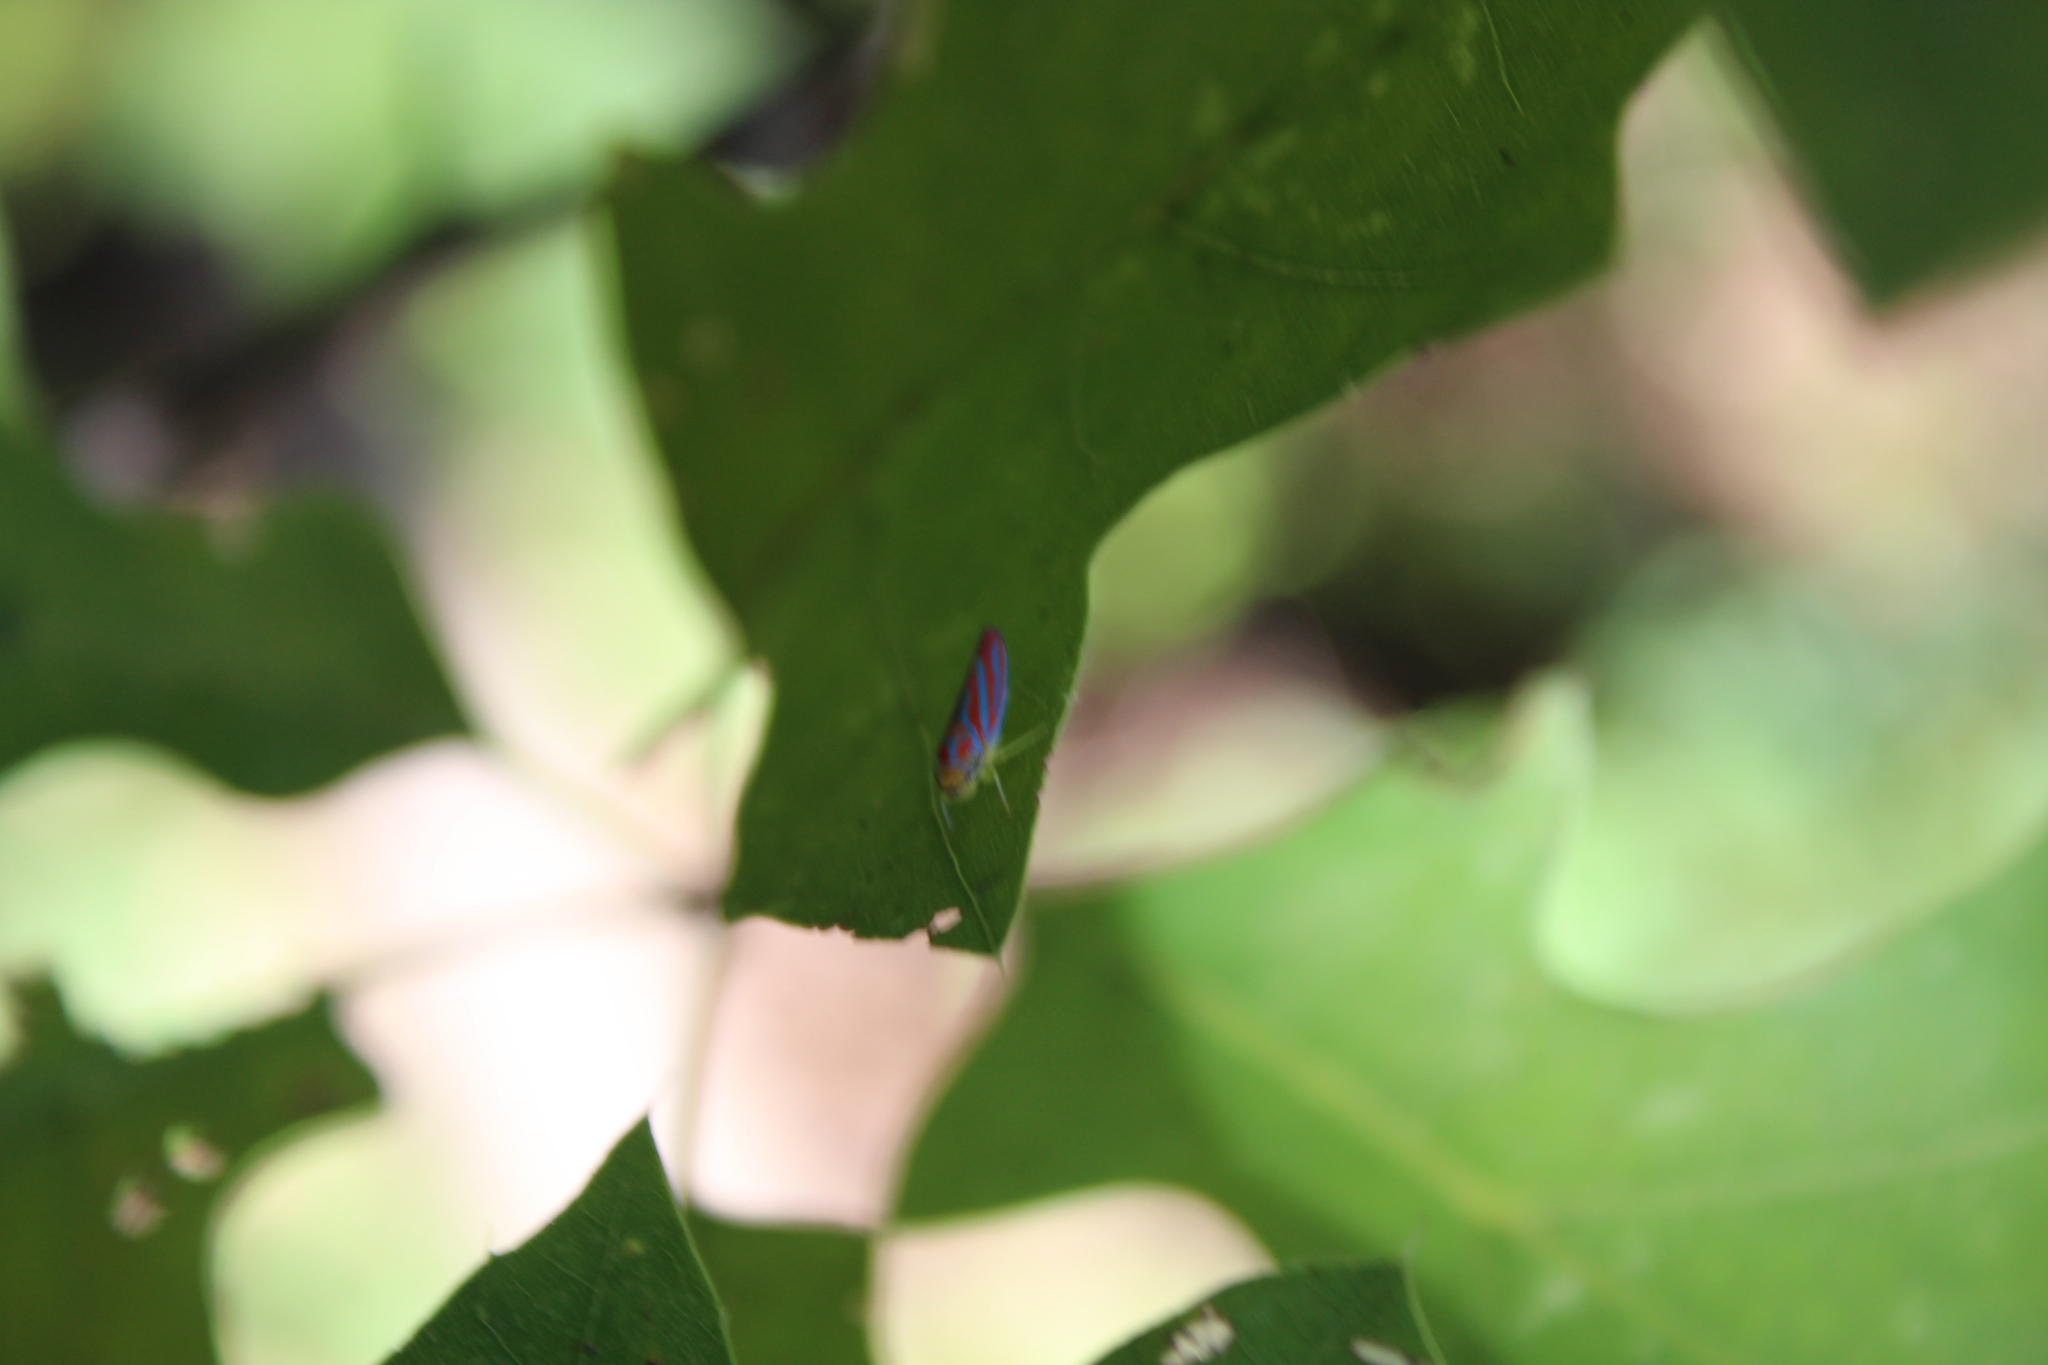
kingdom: Animalia
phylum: Arthropoda
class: Insecta
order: Hemiptera
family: Cicadellidae
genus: Graphocephala
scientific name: Graphocephala coccinea
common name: Candy-striped leafhopper
